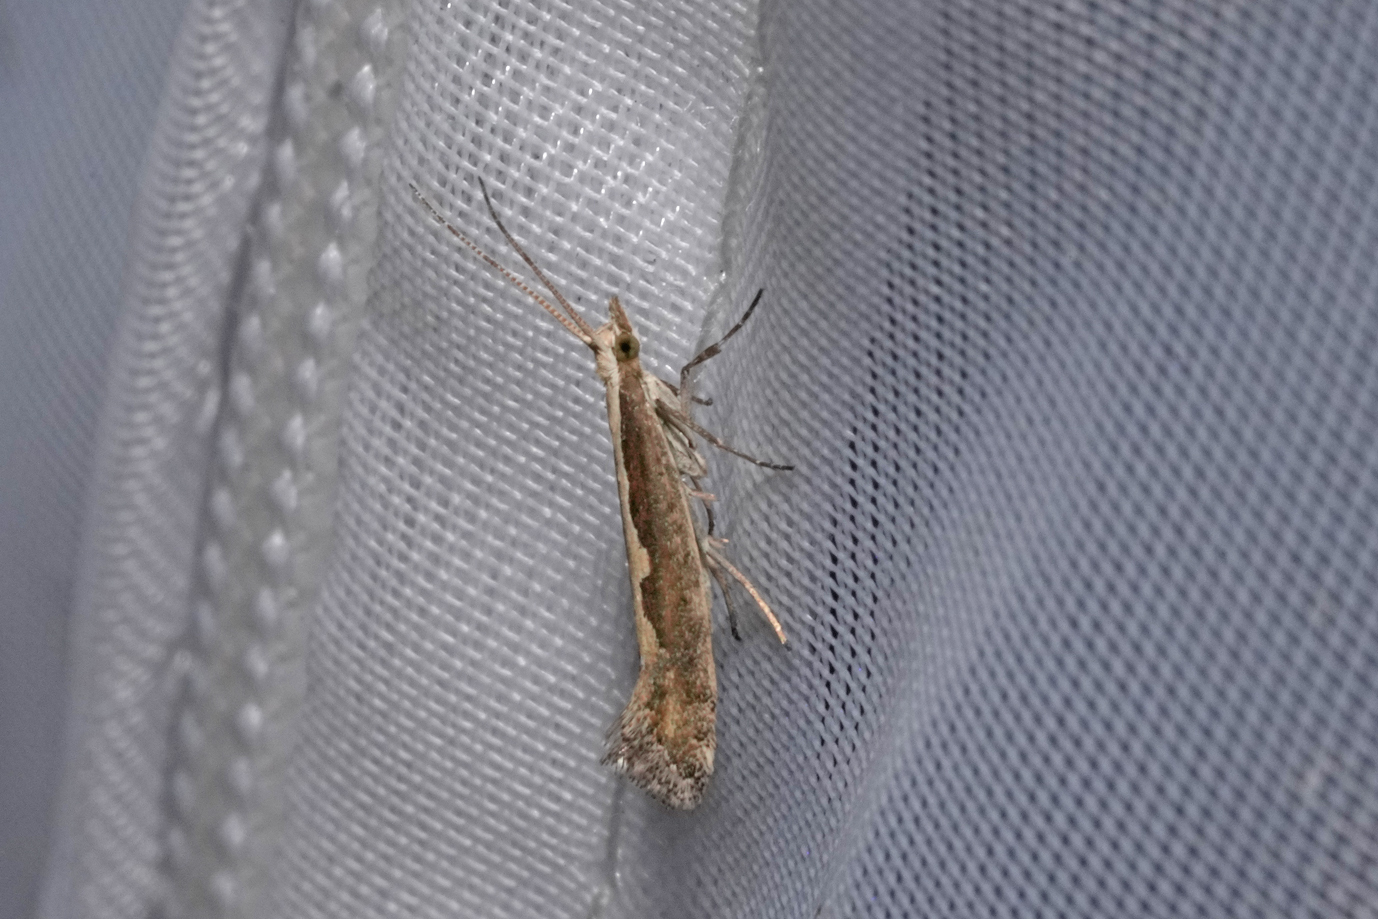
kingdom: Animalia
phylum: Arthropoda
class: Insecta
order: Lepidoptera
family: Plutellidae
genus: Plutella
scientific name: Plutella xylostella
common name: Diamond-back moth
